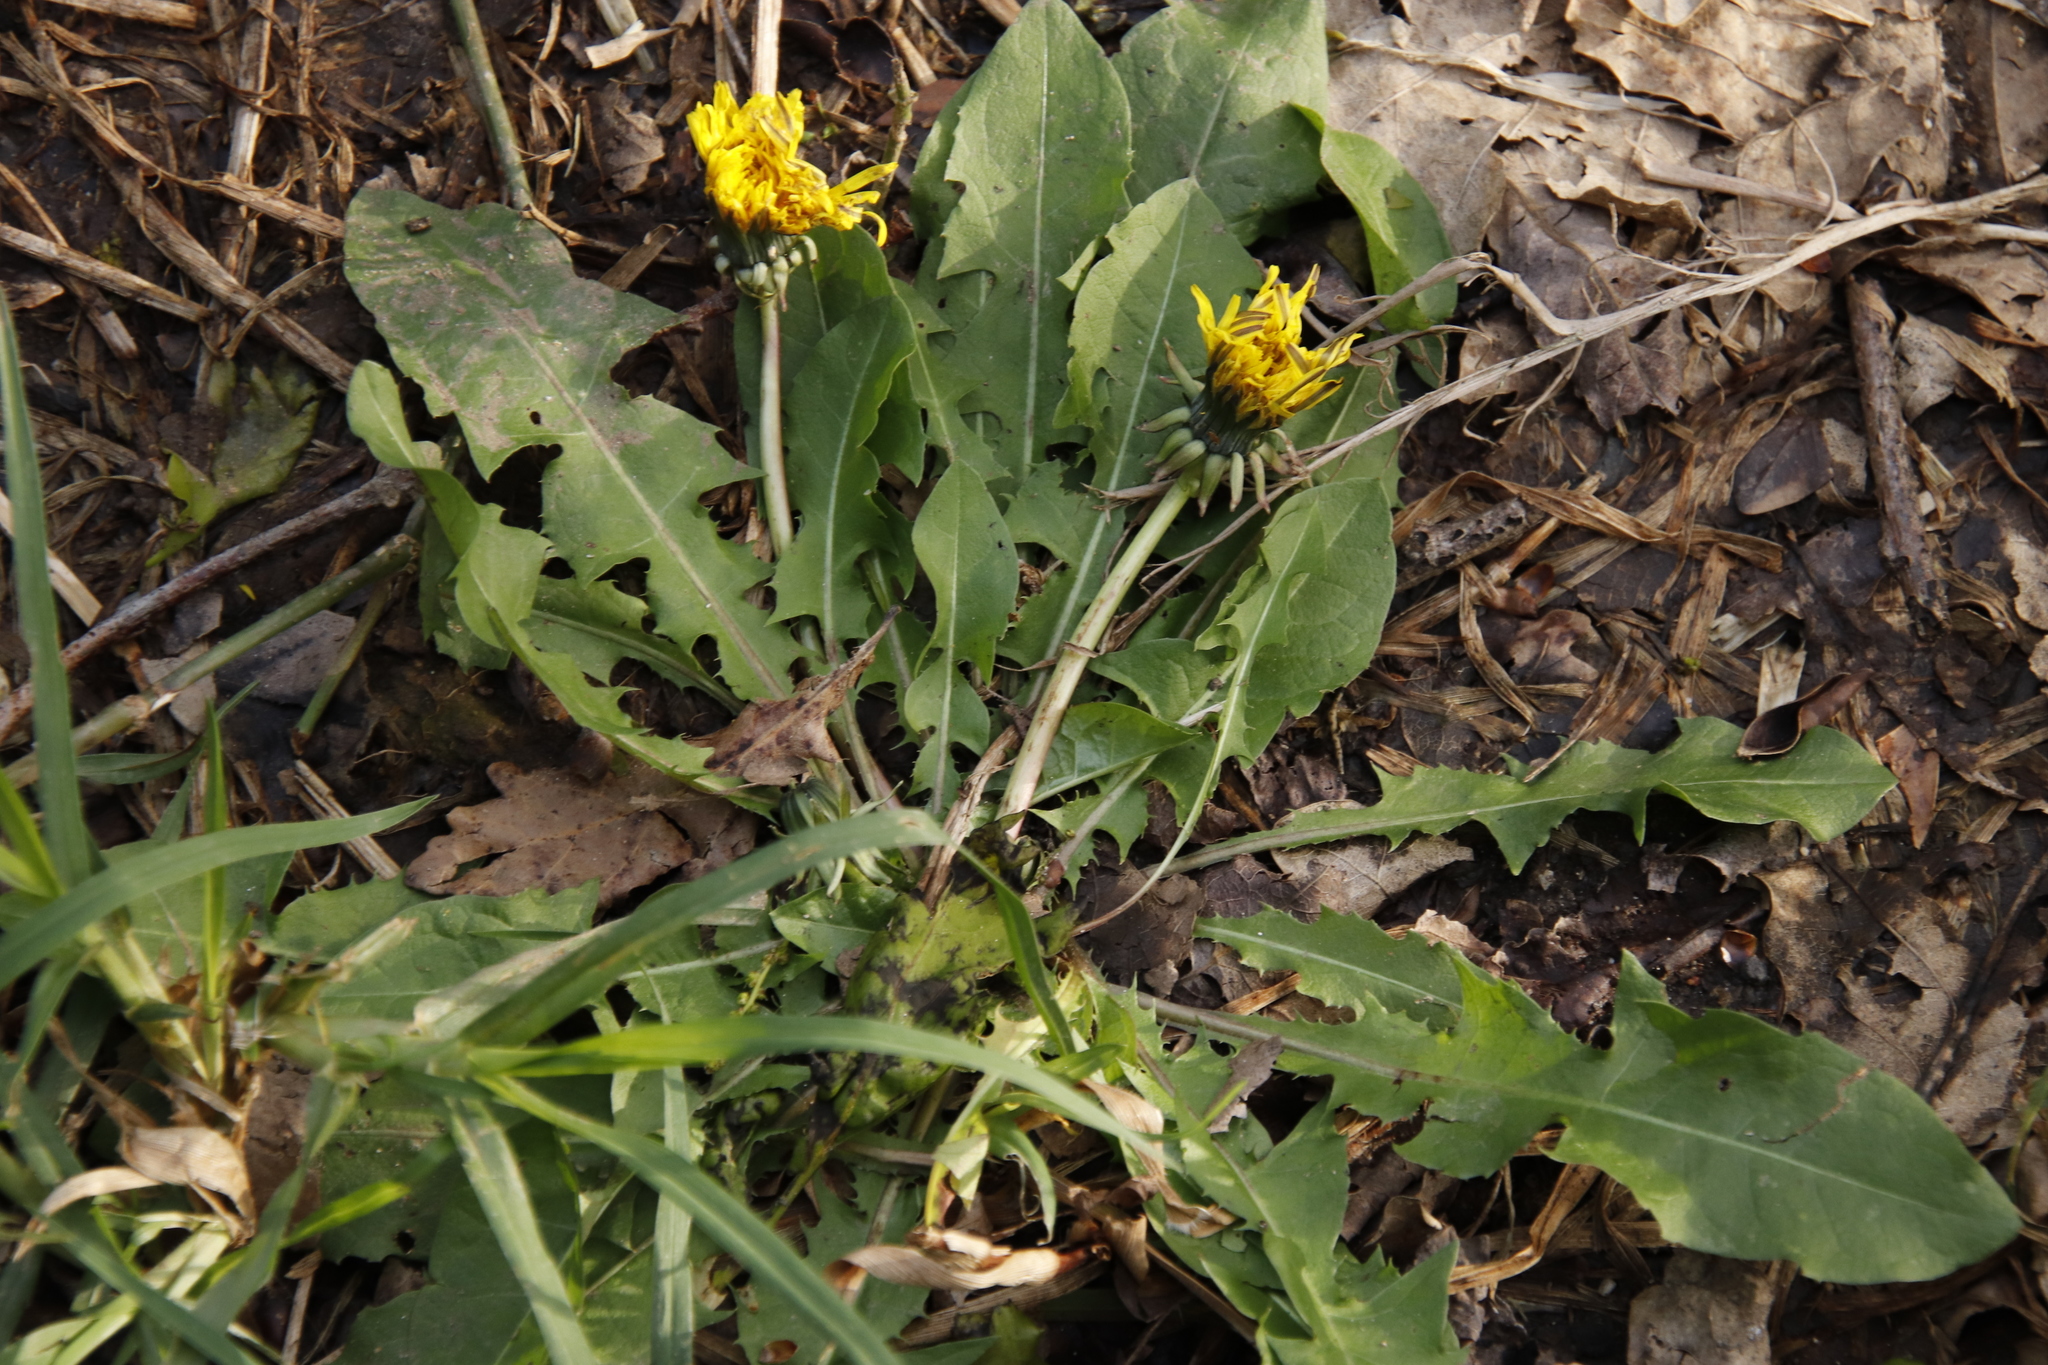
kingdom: Plantae
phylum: Tracheophyta
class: Magnoliopsida
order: Asterales
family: Asteraceae
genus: Taraxacum
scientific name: Taraxacum officinale
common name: Common dandelion
